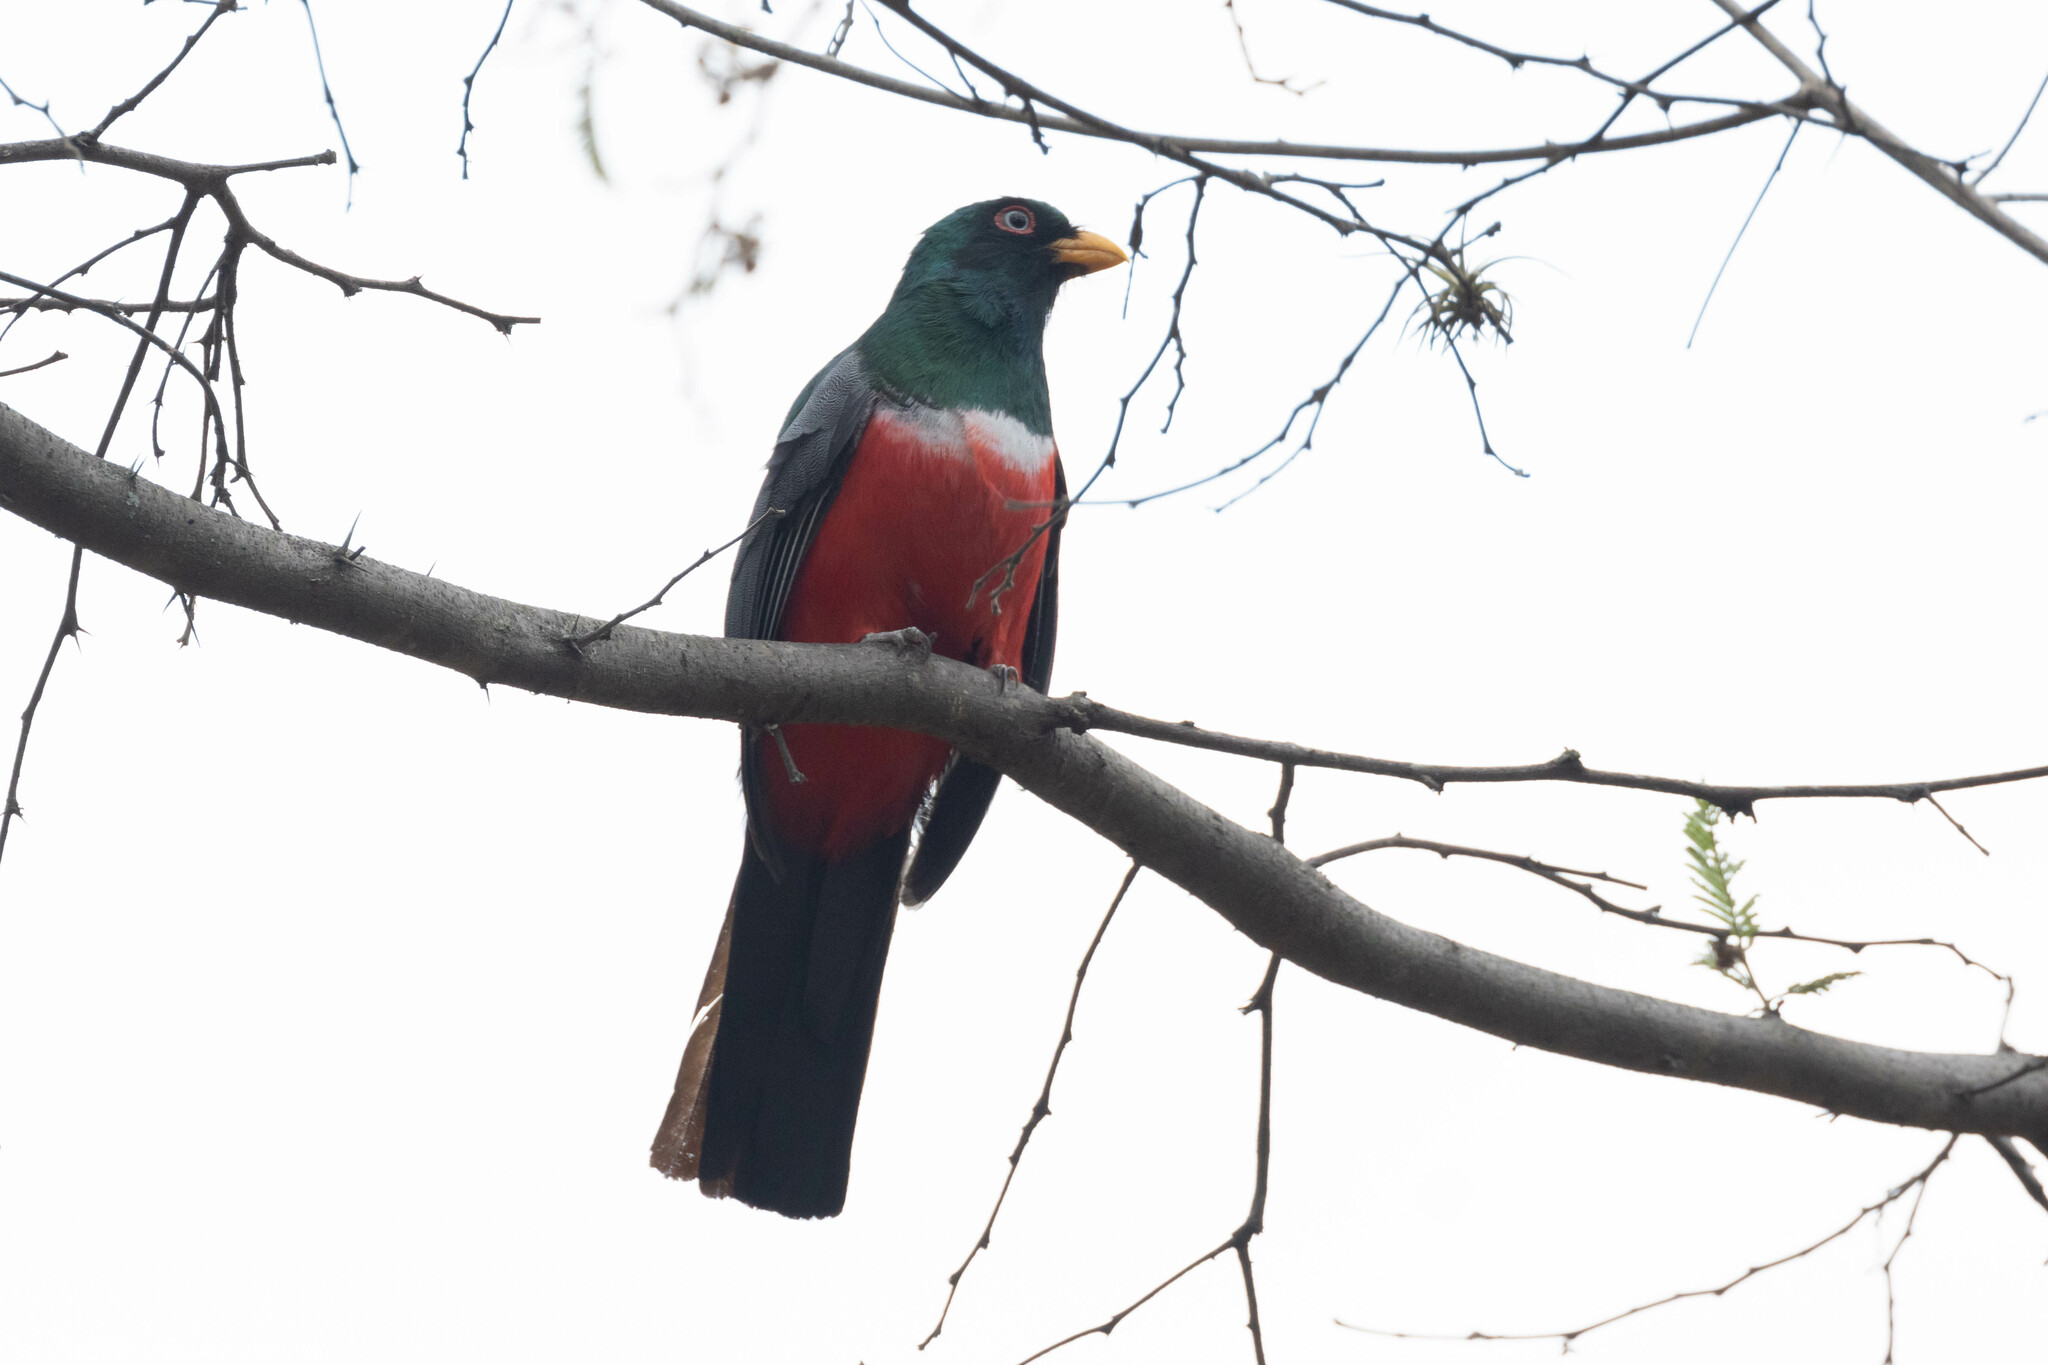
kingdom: Animalia
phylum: Chordata
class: Aves
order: Trogoniformes
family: Trogonidae
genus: Trogon
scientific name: Trogon mesurus
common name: Ecuadorian trogon
